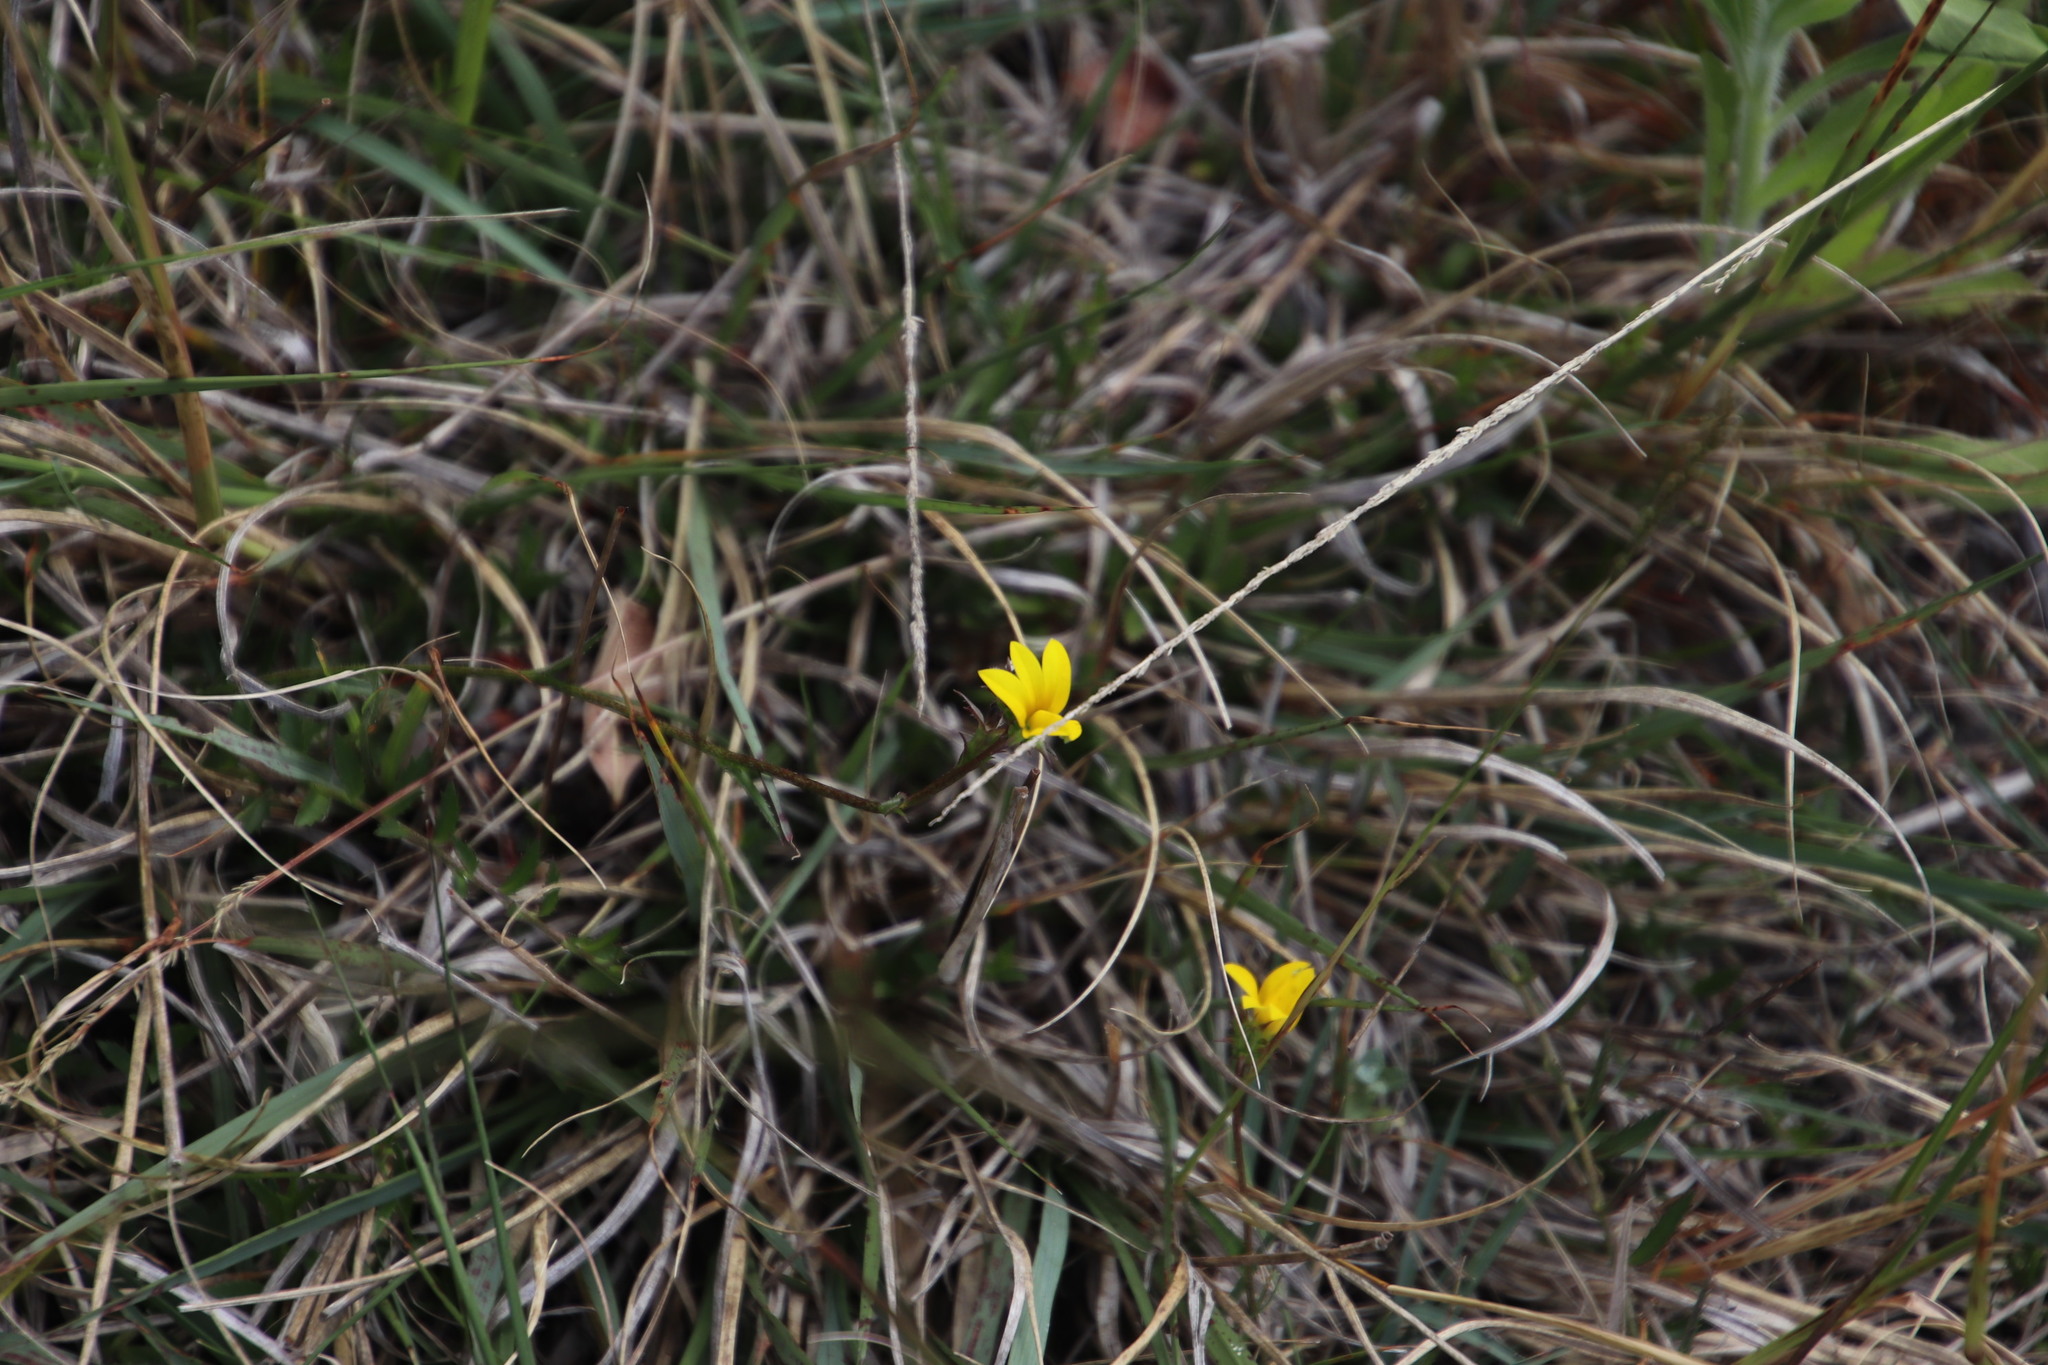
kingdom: Plantae
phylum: Tracheophyta
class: Magnoliopsida
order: Asterales
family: Campanulaceae
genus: Monopsis
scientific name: Monopsis lutea
